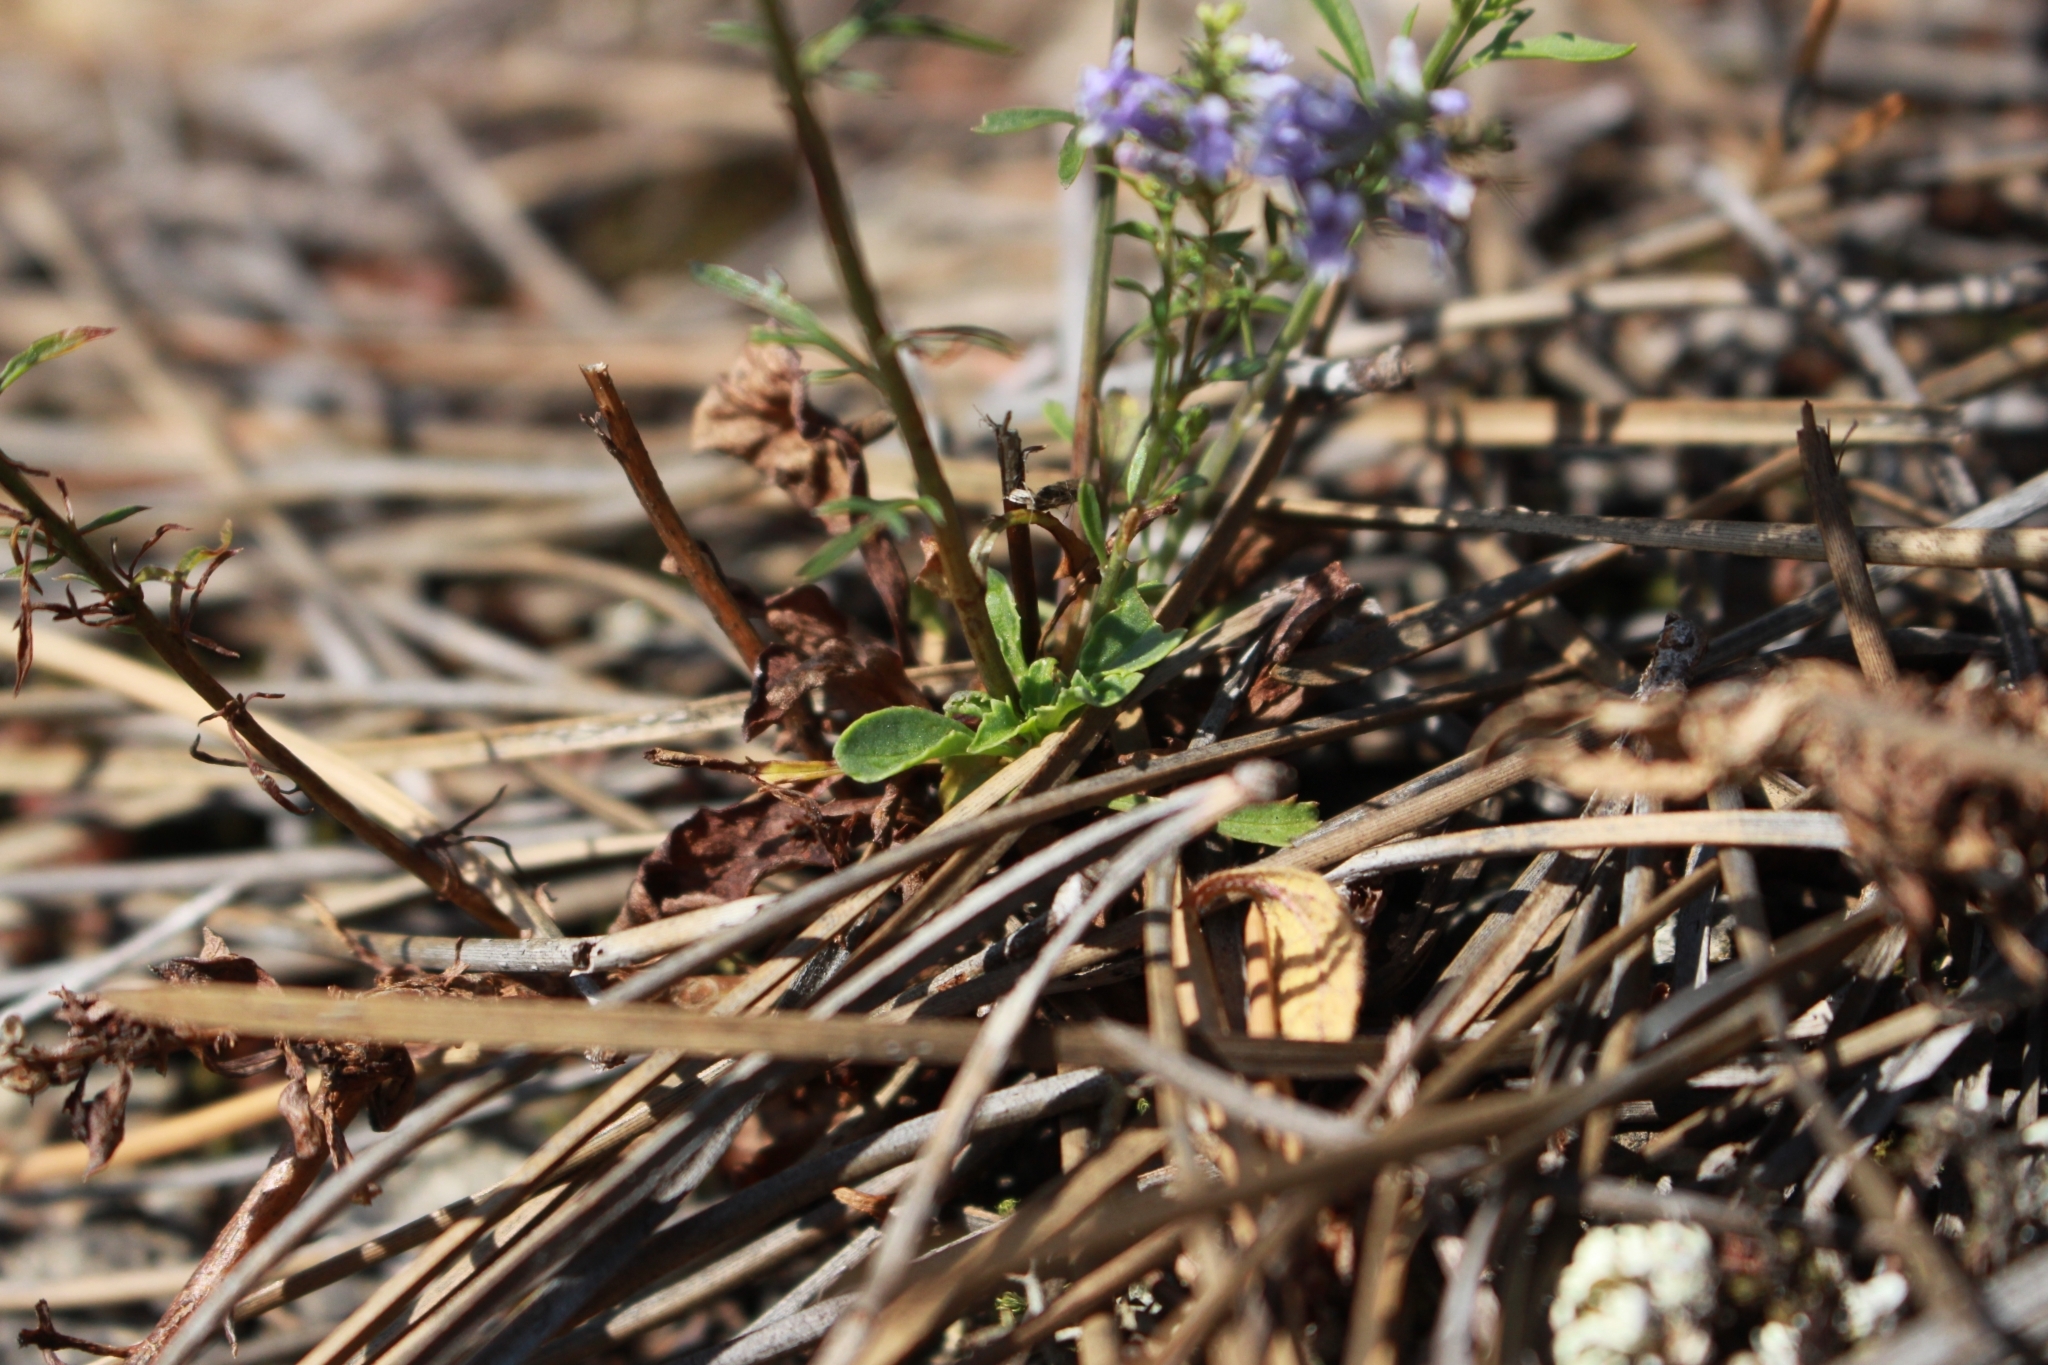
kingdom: Plantae
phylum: Tracheophyta
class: Magnoliopsida
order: Lamiales
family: Plantaginaceae
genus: Anarrhinum
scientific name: Anarrhinum bellidifolium
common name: Daisy-leaved toadflax
